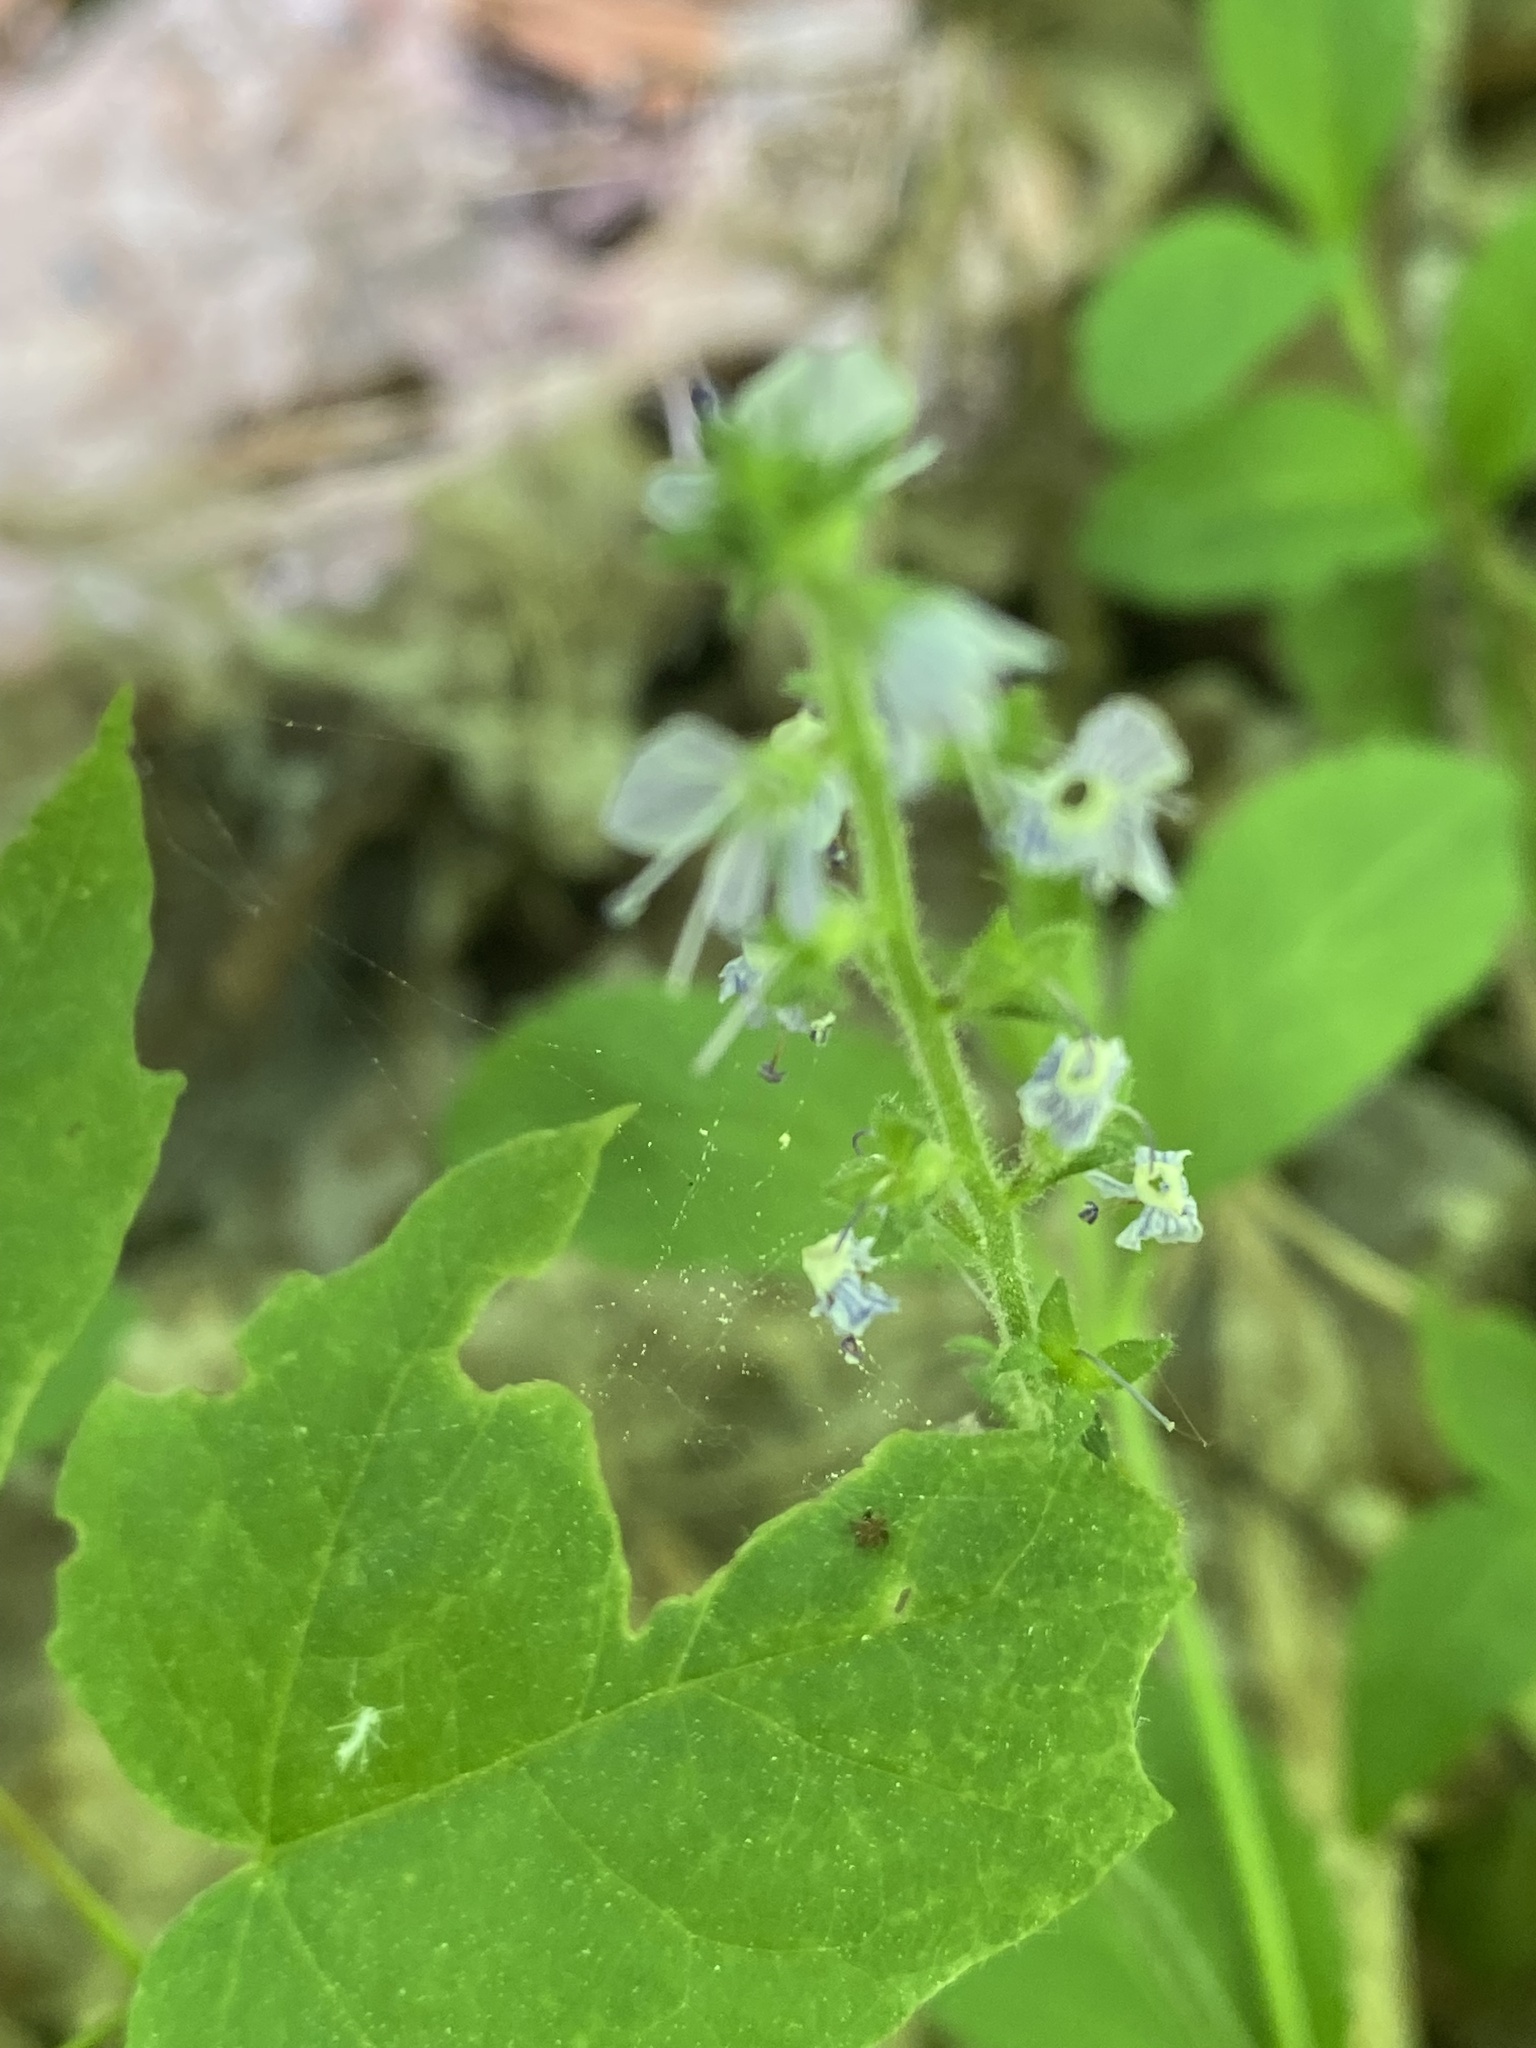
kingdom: Plantae
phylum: Tracheophyta
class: Magnoliopsida
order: Lamiales
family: Plantaginaceae
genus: Veronica
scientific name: Veronica officinalis
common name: Common speedwell
